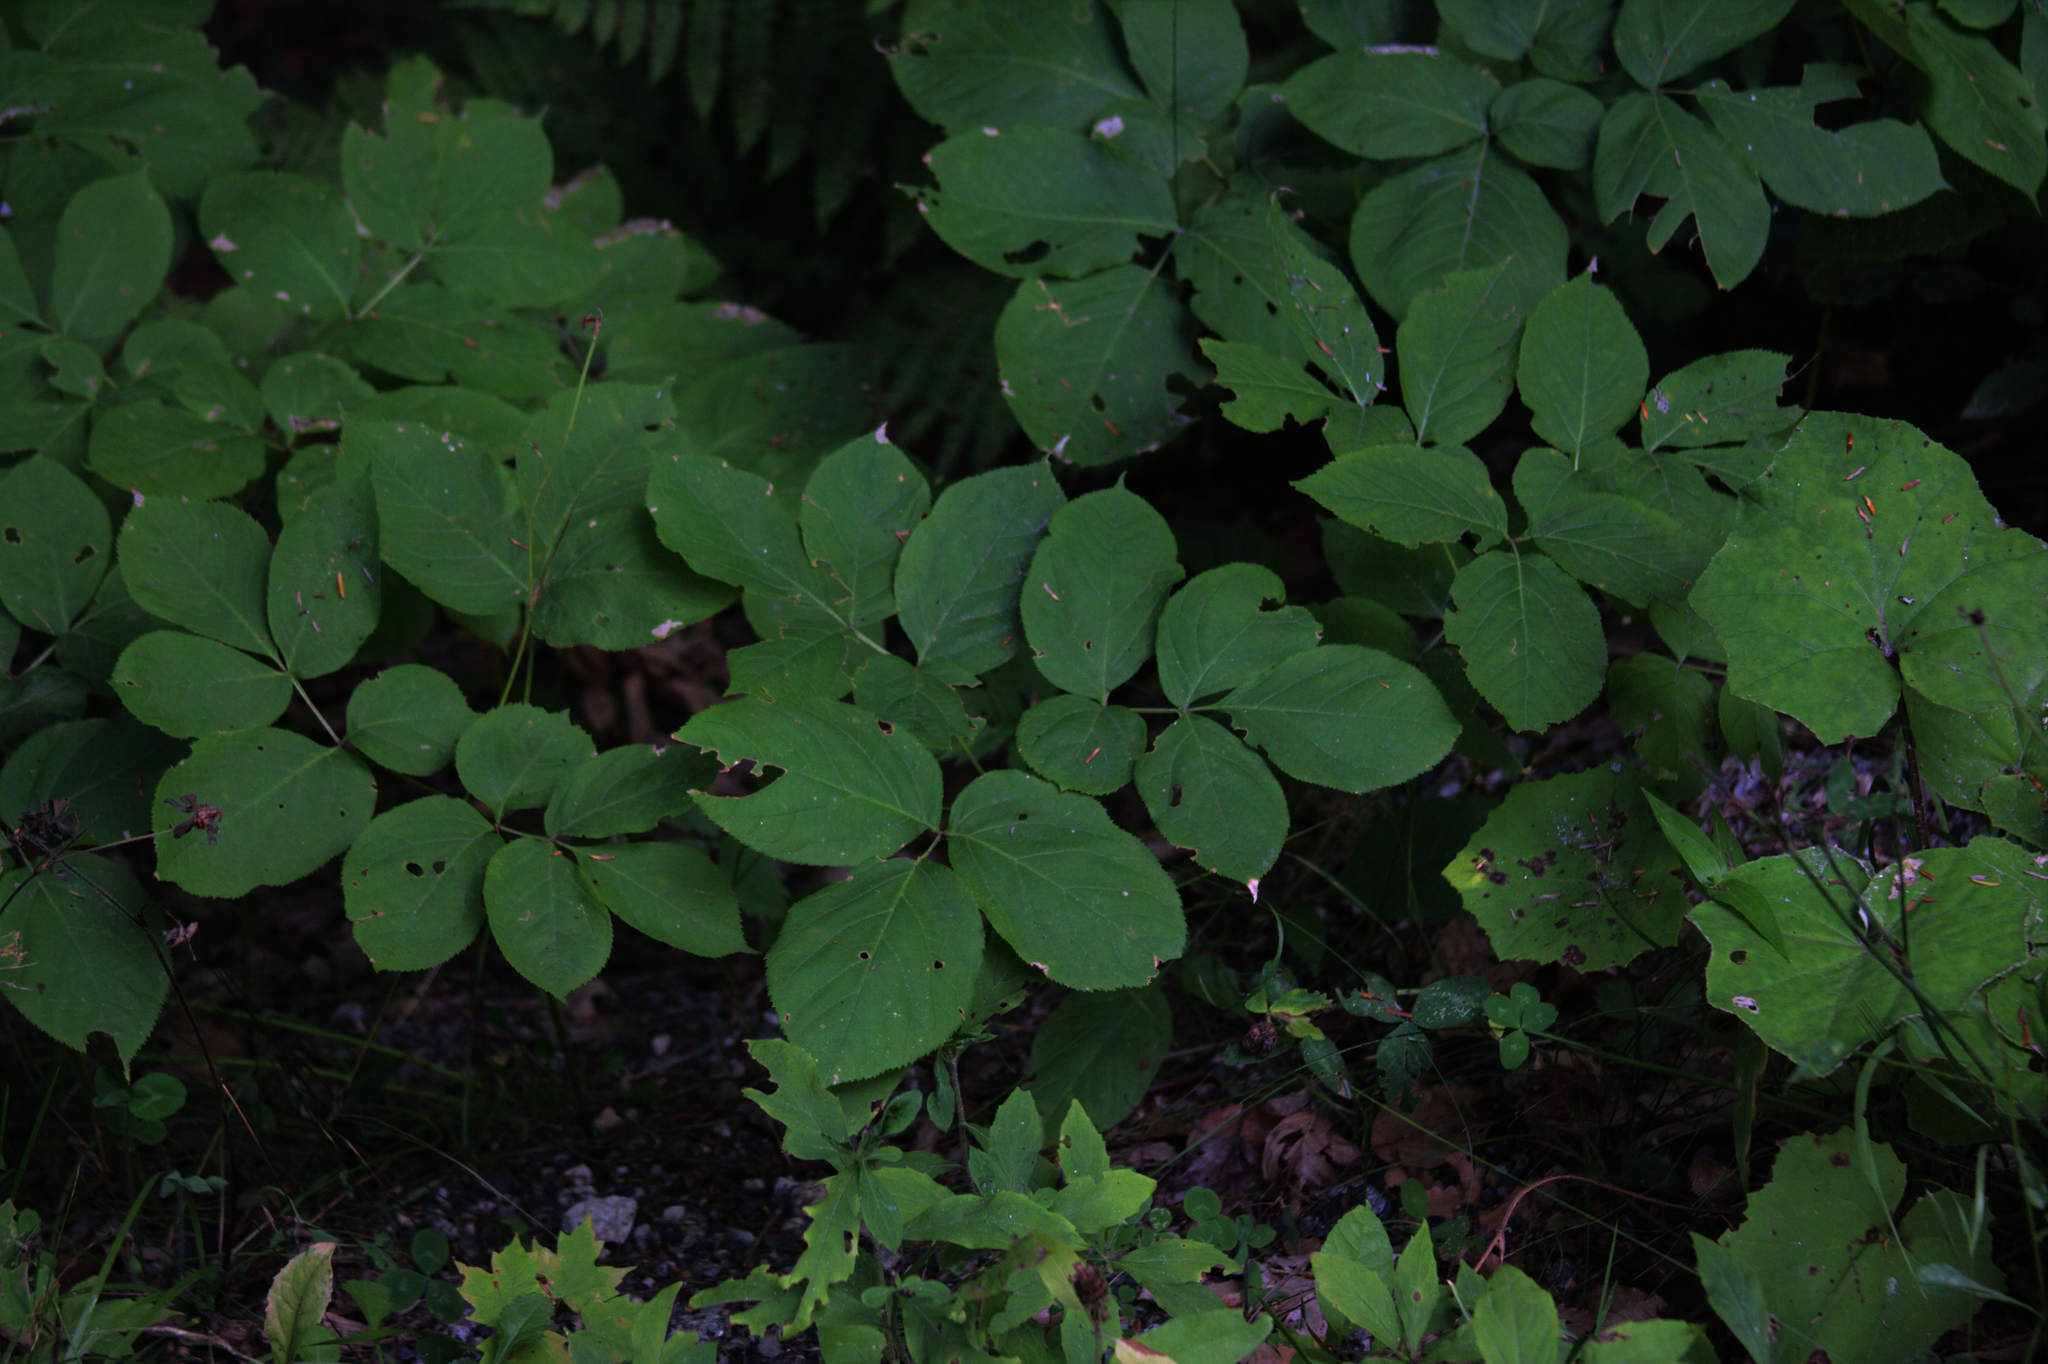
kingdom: Plantae
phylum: Tracheophyta
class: Magnoliopsida
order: Apiales
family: Araliaceae
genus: Aralia
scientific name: Aralia nudicaulis
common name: Wild sarsaparilla
